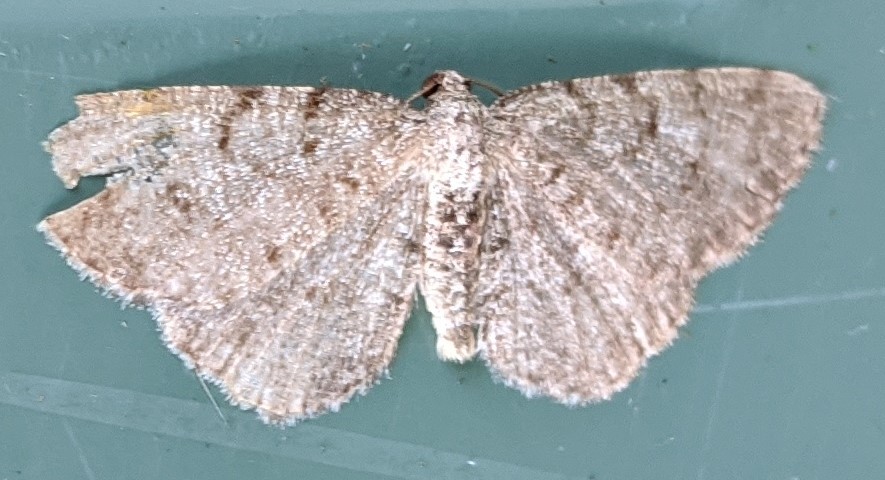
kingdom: Animalia
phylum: Arthropoda
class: Insecta
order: Lepidoptera
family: Geometridae
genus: Aethalura
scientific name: Aethalura intertexta
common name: Four-barred gray
